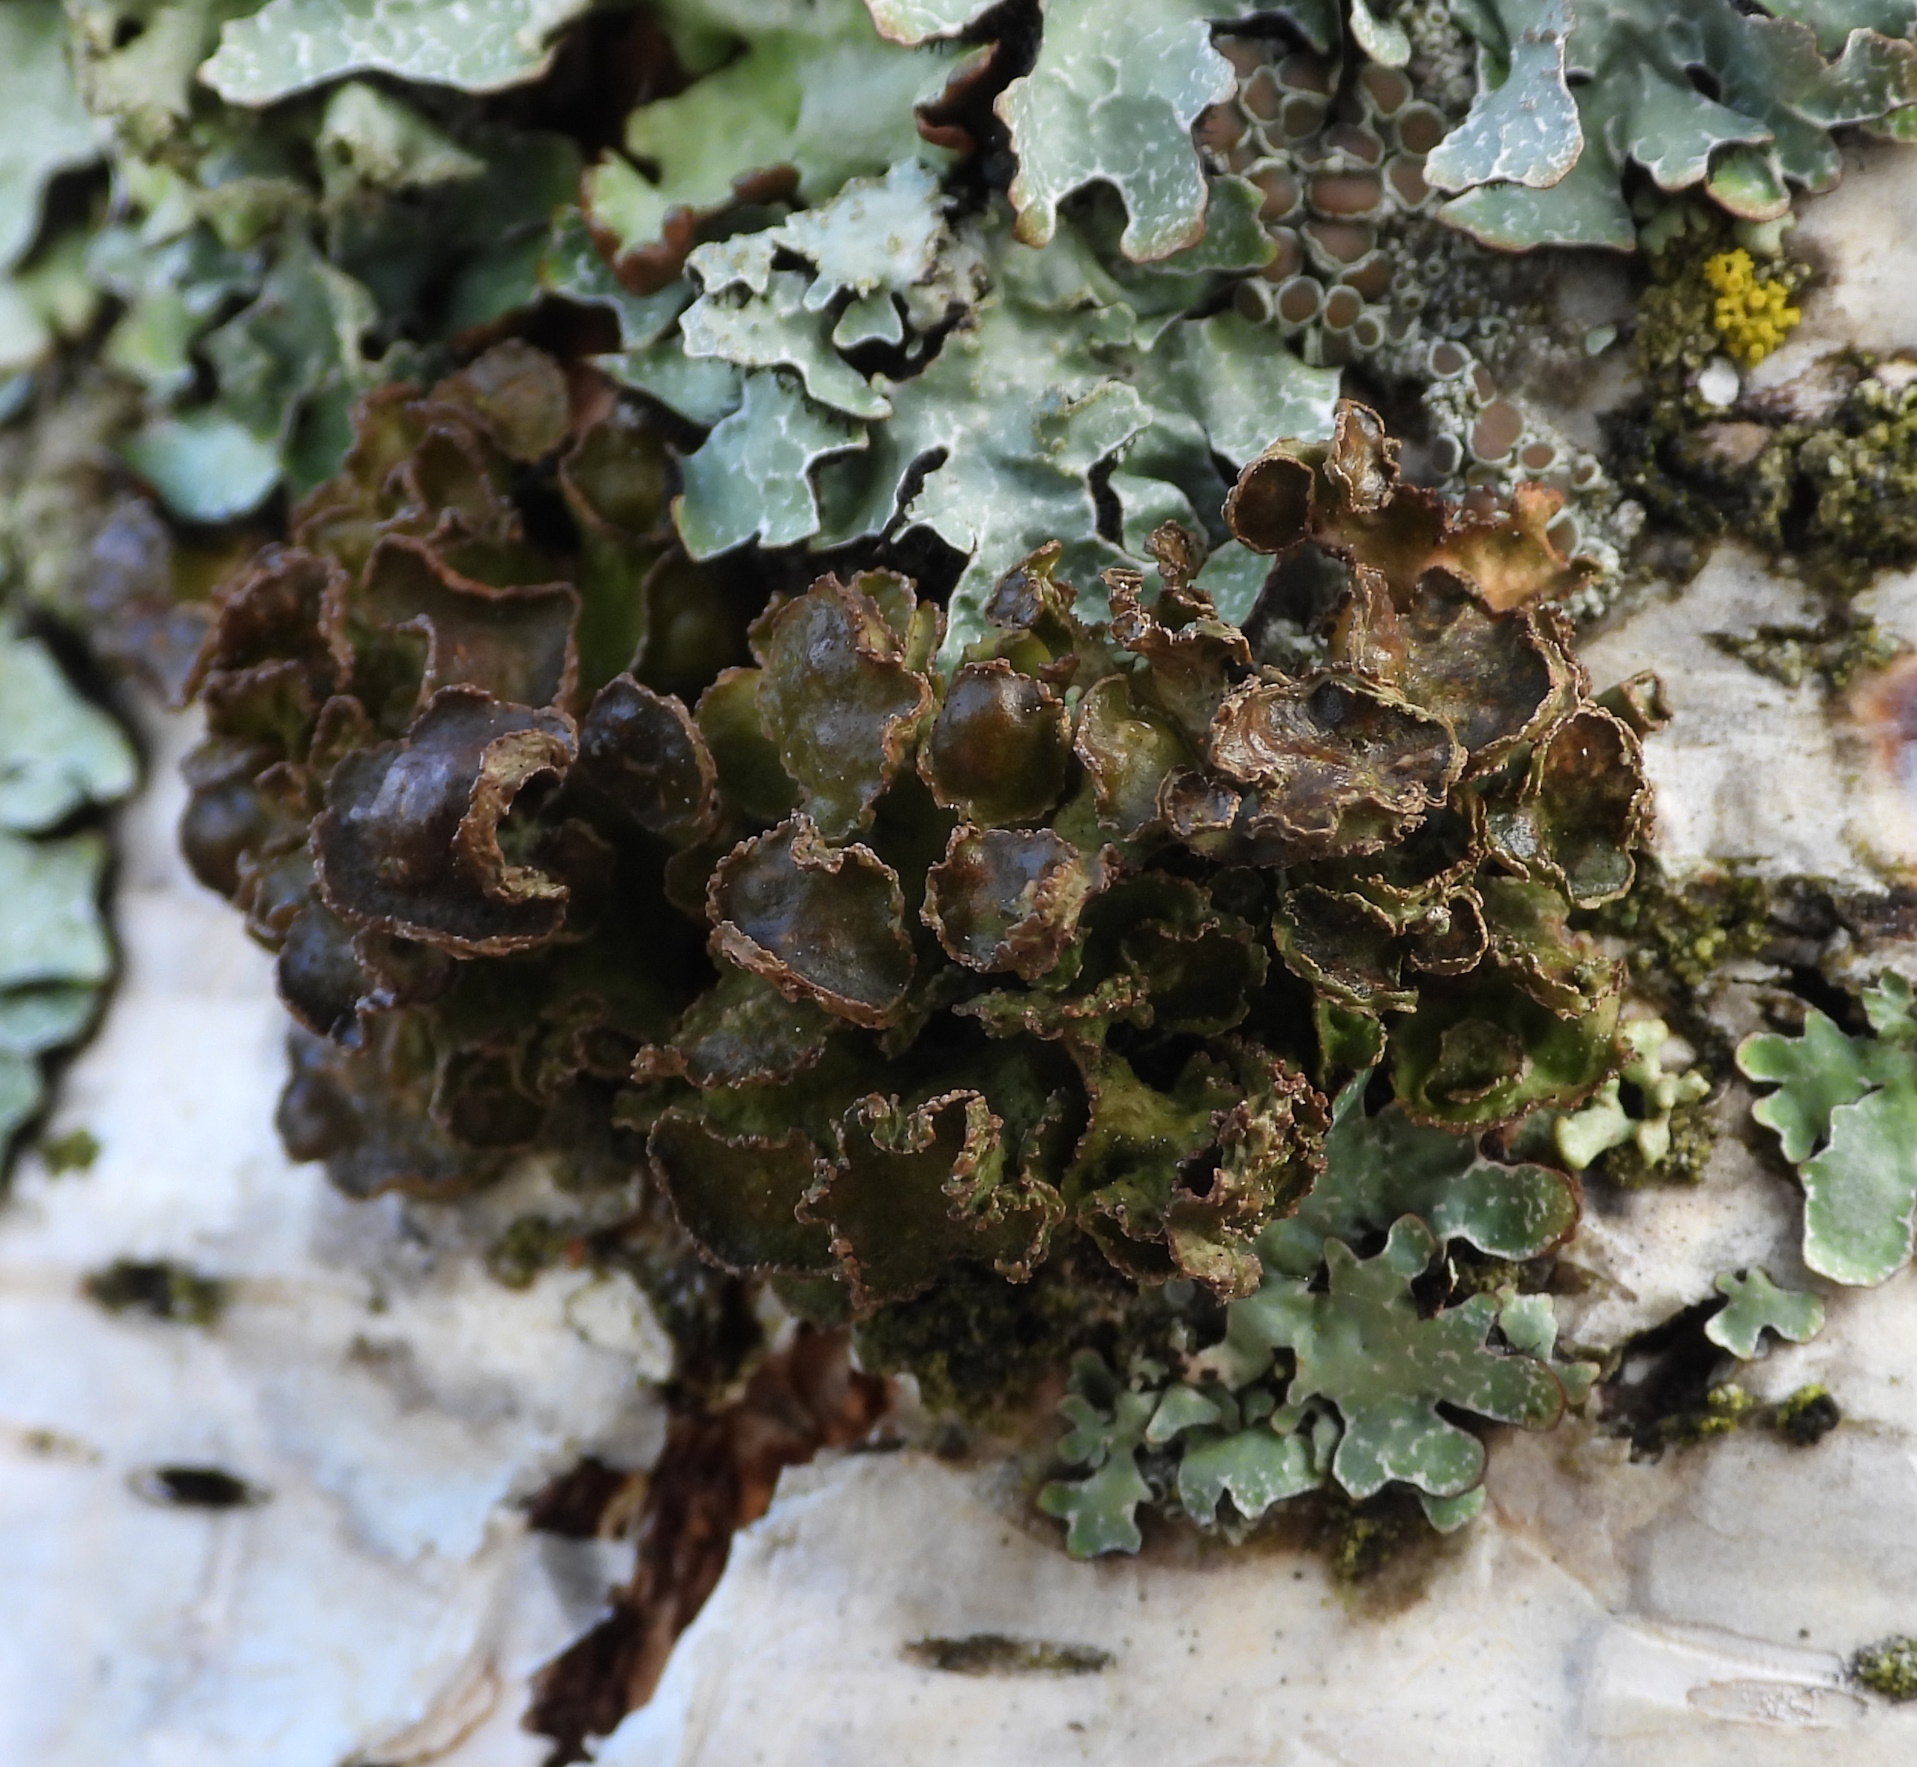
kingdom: Fungi
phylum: Ascomycota
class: Lecanoromycetes
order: Lecanorales
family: Parmeliaceae
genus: Cetraria
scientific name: Cetraria sepincola
